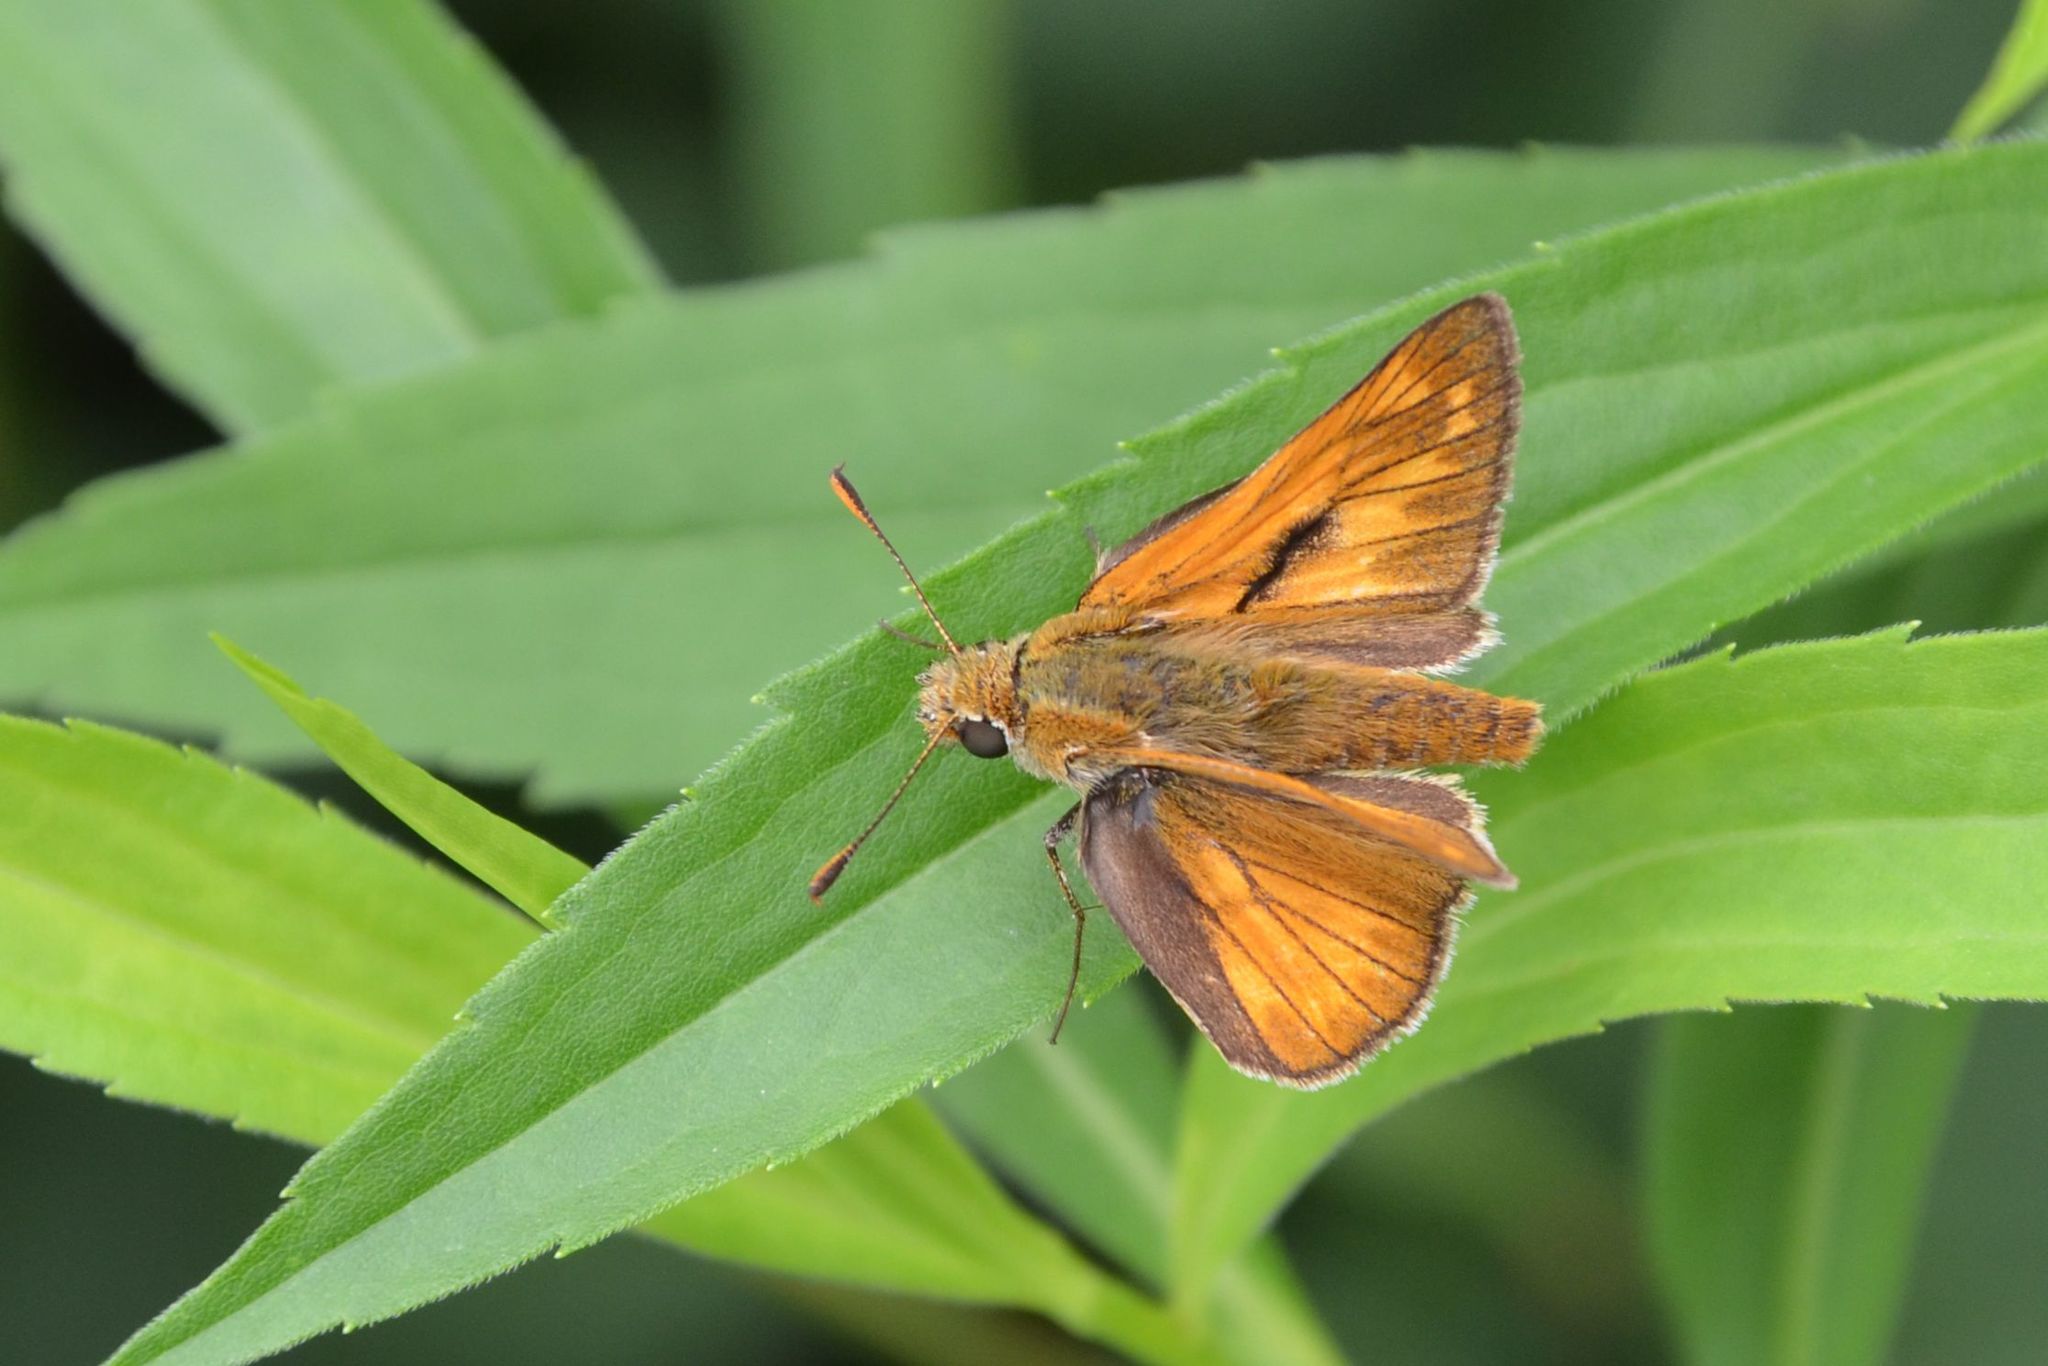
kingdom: Animalia
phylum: Arthropoda
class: Insecta
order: Lepidoptera
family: Hesperiidae
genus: Ochlodes
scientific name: Ochlodes venata
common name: Large skipper
